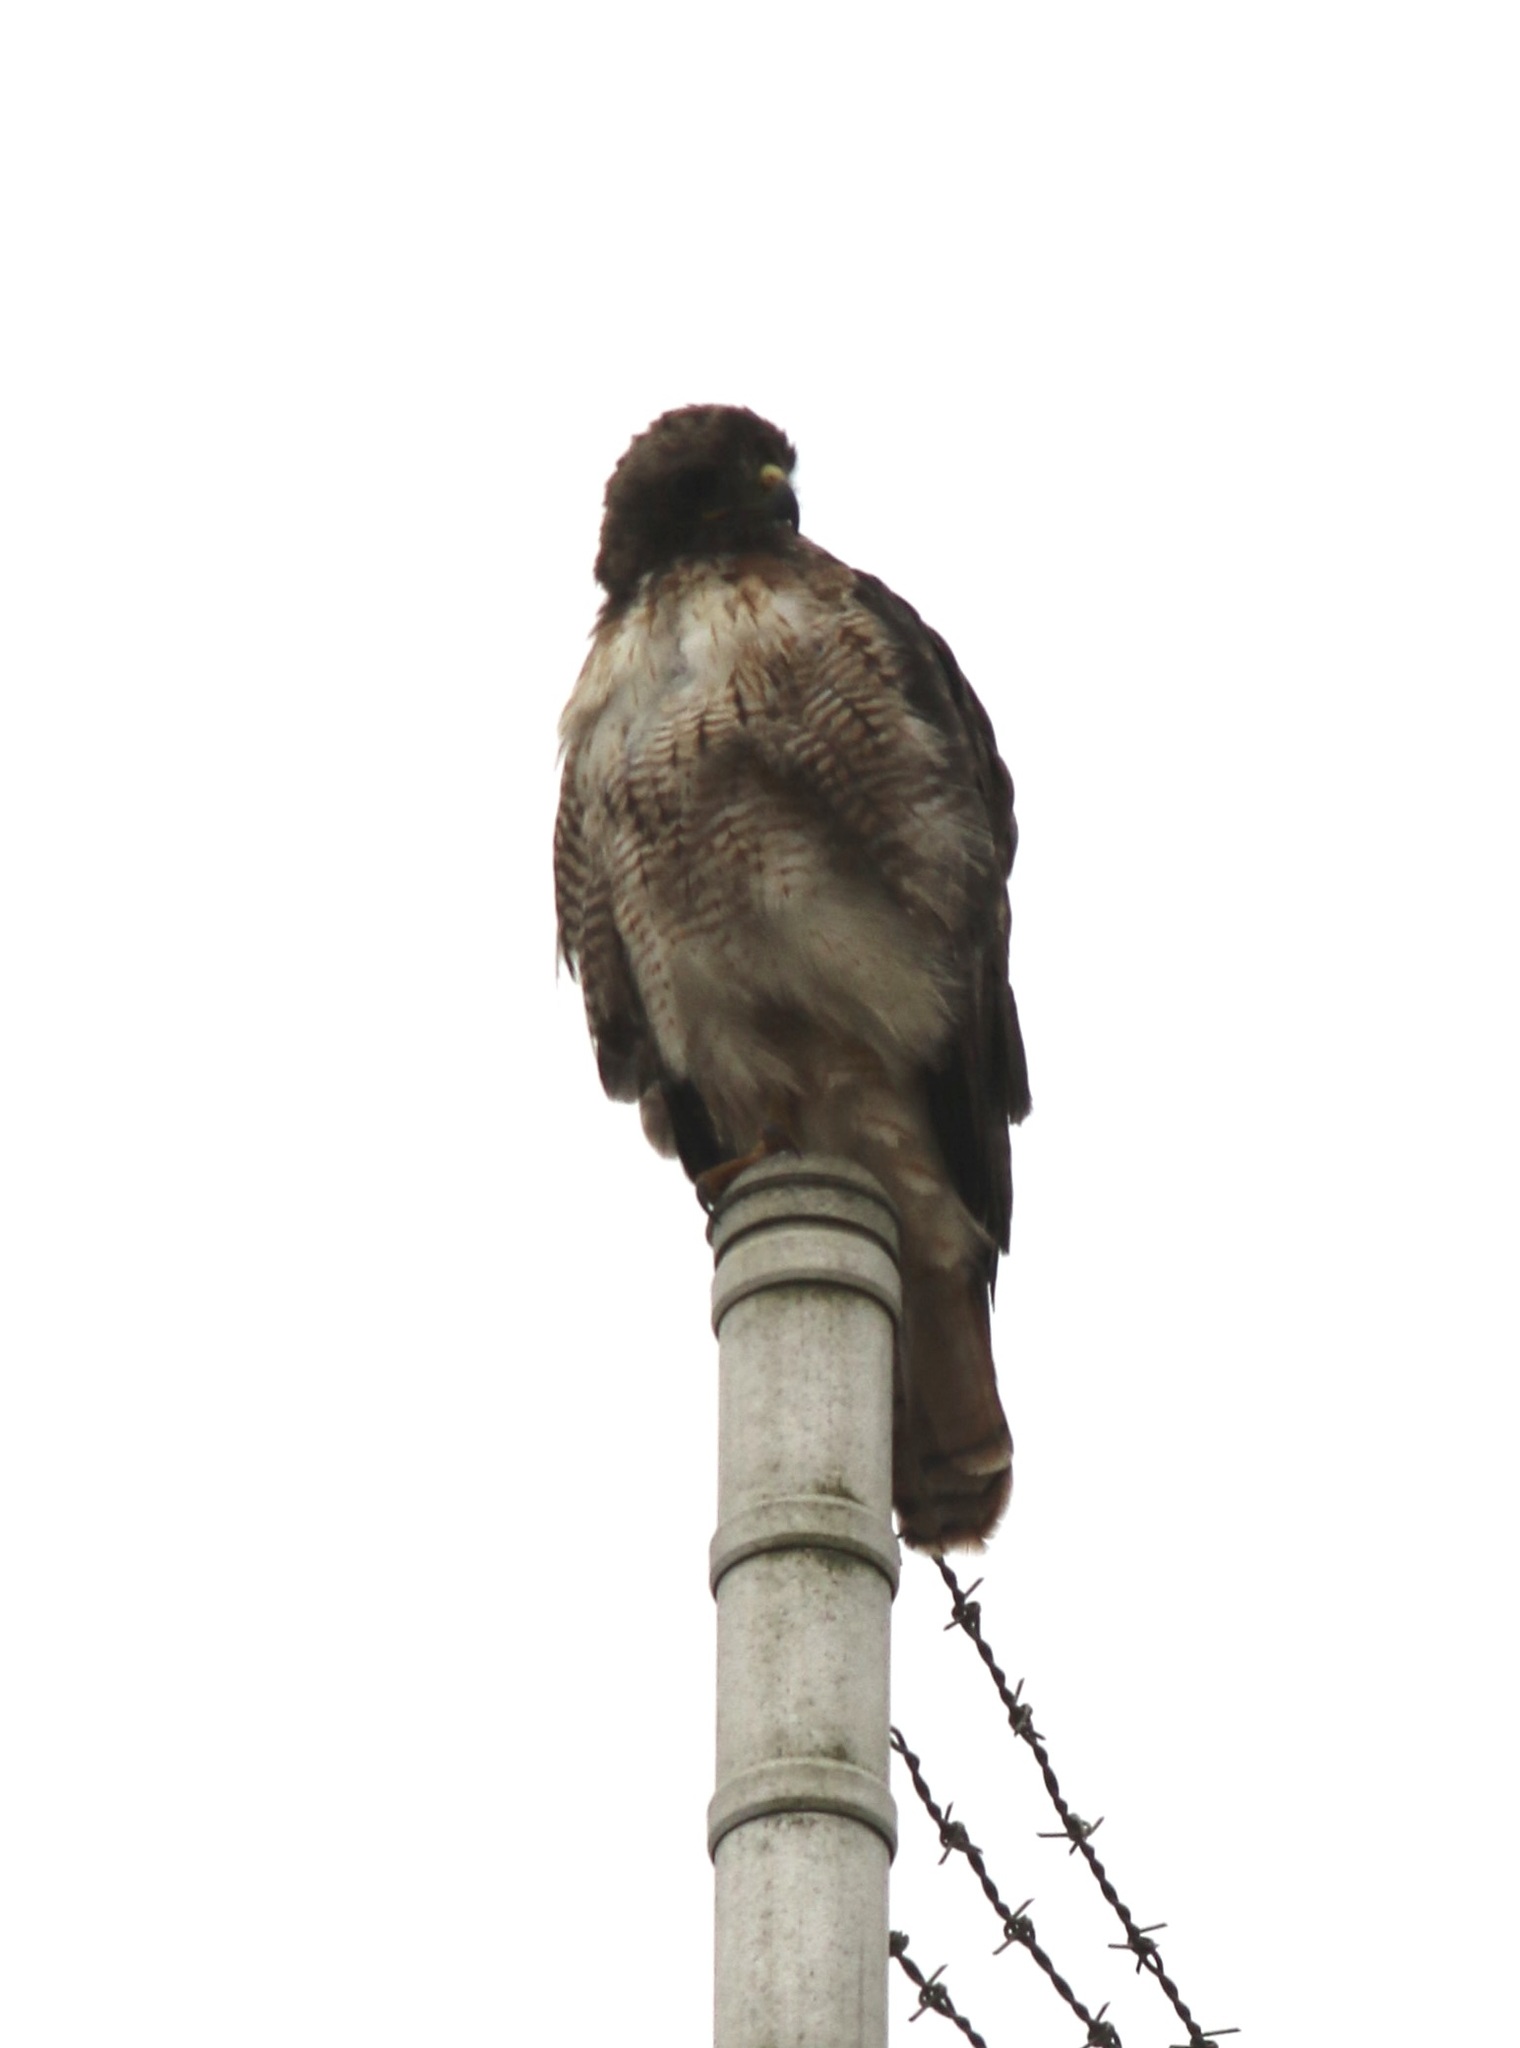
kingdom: Animalia
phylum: Chordata
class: Aves
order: Accipitriformes
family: Accipitridae
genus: Buteo
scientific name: Buteo jamaicensis
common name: Red-tailed hawk
